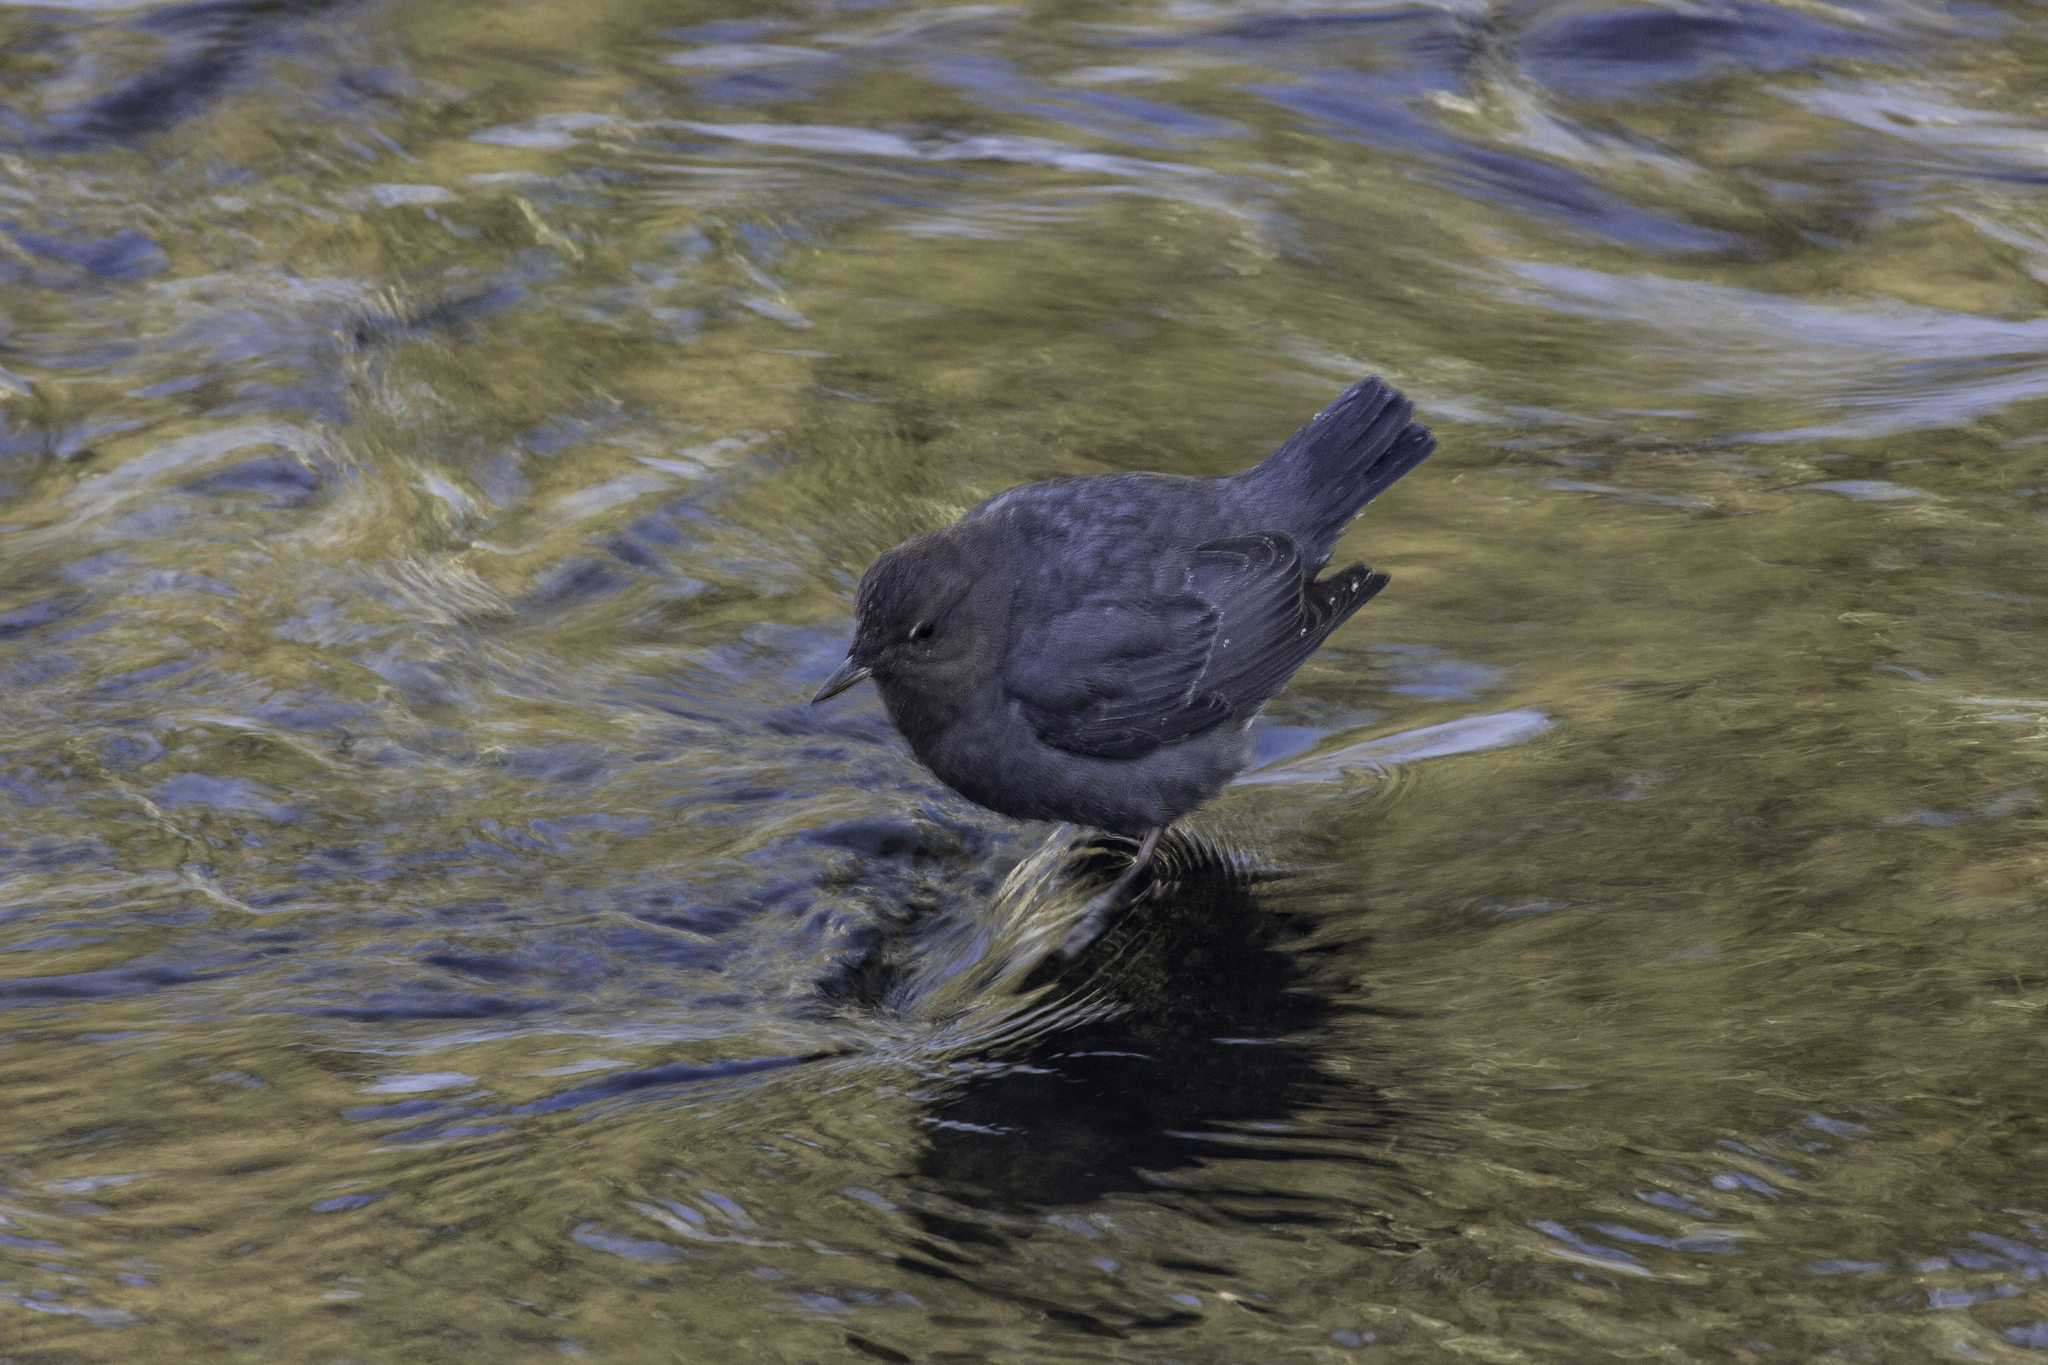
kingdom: Animalia
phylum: Chordata
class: Aves
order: Passeriformes
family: Cinclidae
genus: Cinclus
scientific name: Cinclus mexicanus
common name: American dipper
